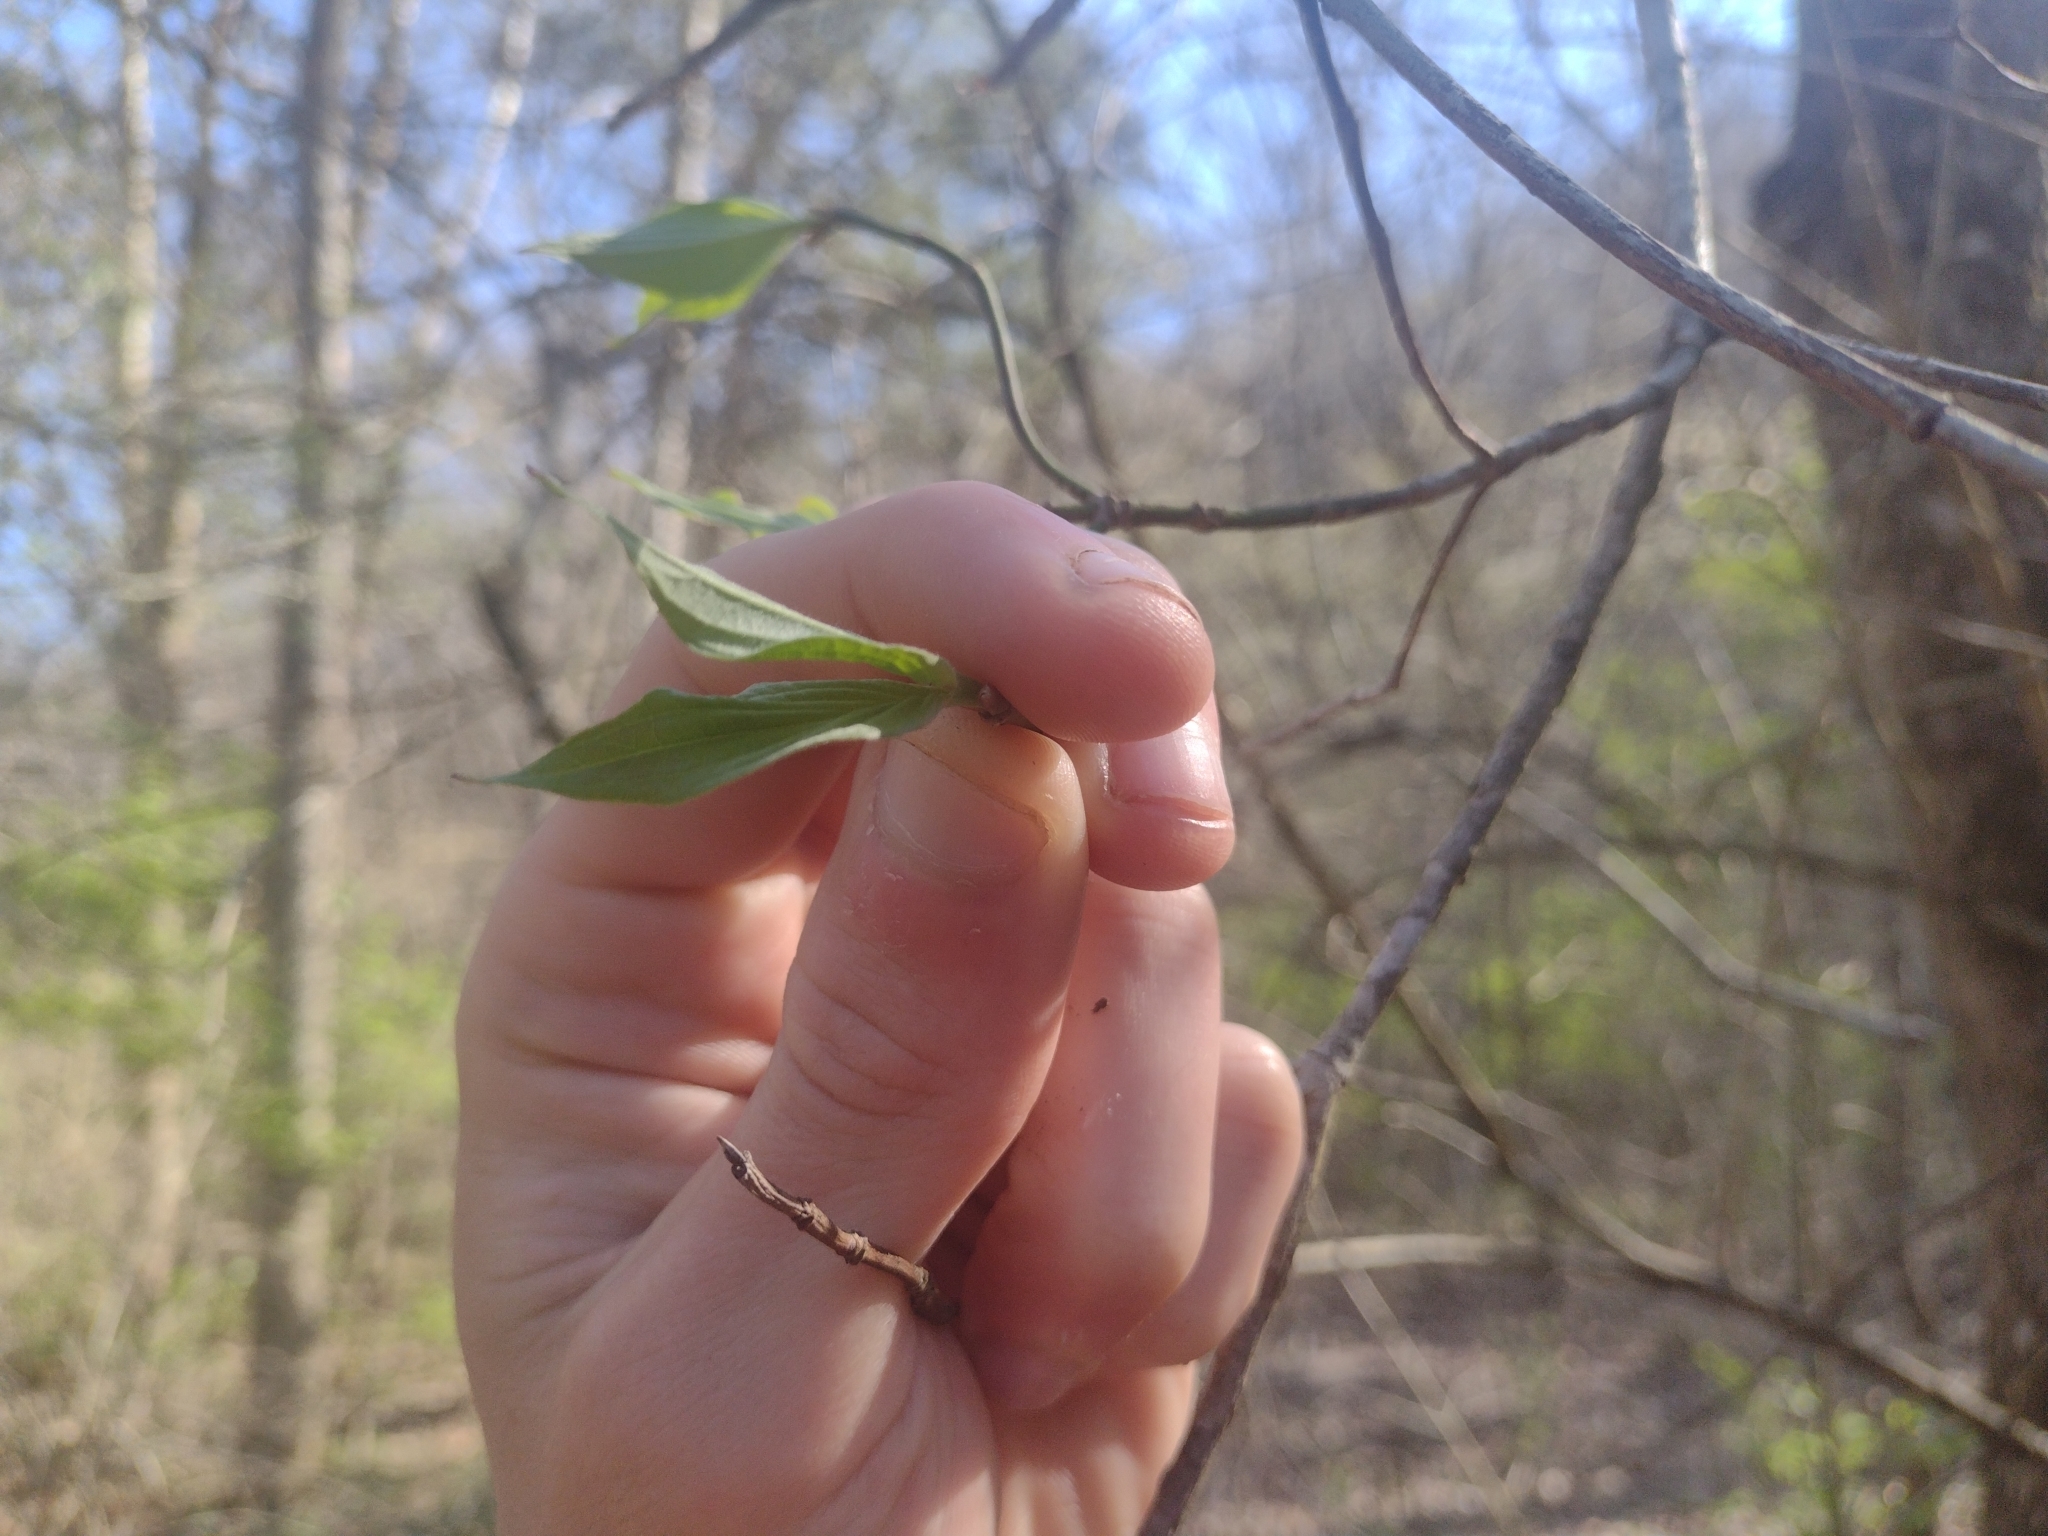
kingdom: Plantae
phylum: Tracheophyta
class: Magnoliopsida
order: Cornales
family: Cornaceae
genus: Cornus
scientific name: Cornus florida
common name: Flowering dogwood
